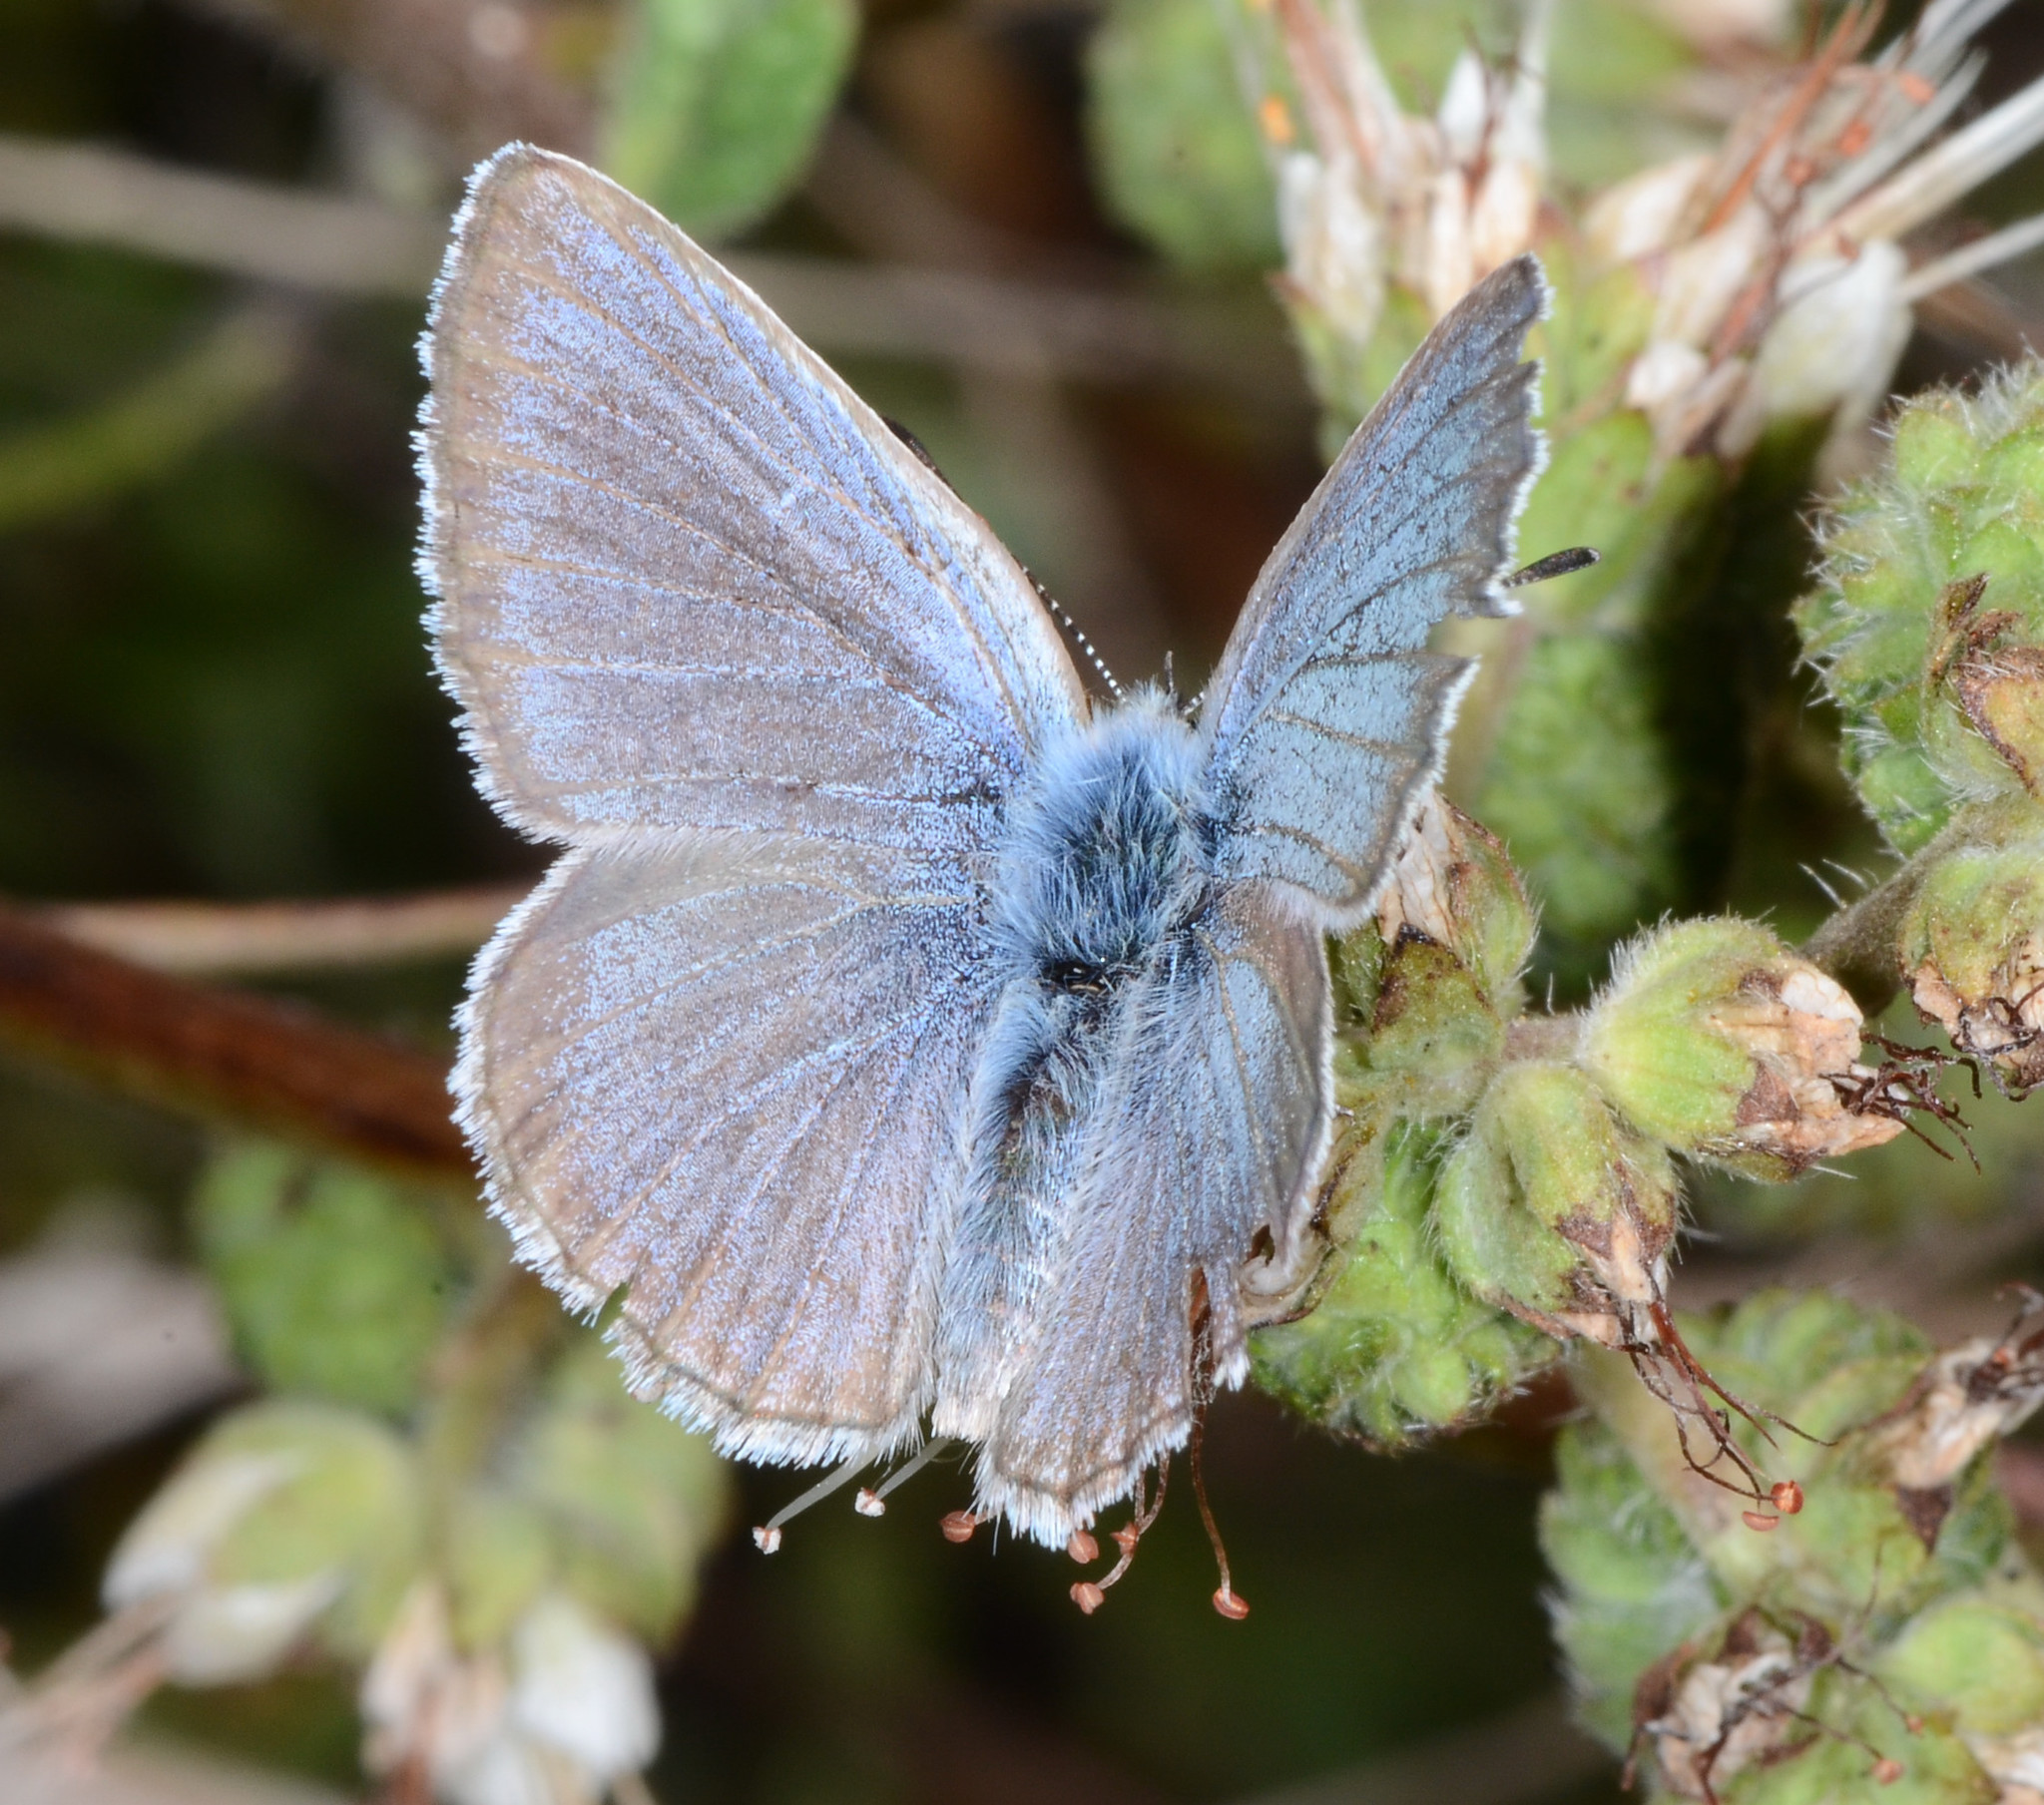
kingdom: Animalia
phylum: Arthropoda
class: Insecta
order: Lepidoptera
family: Lycaenidae
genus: Glaucopsyche
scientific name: Glaucopsyche lygdamus
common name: Silvery blue
